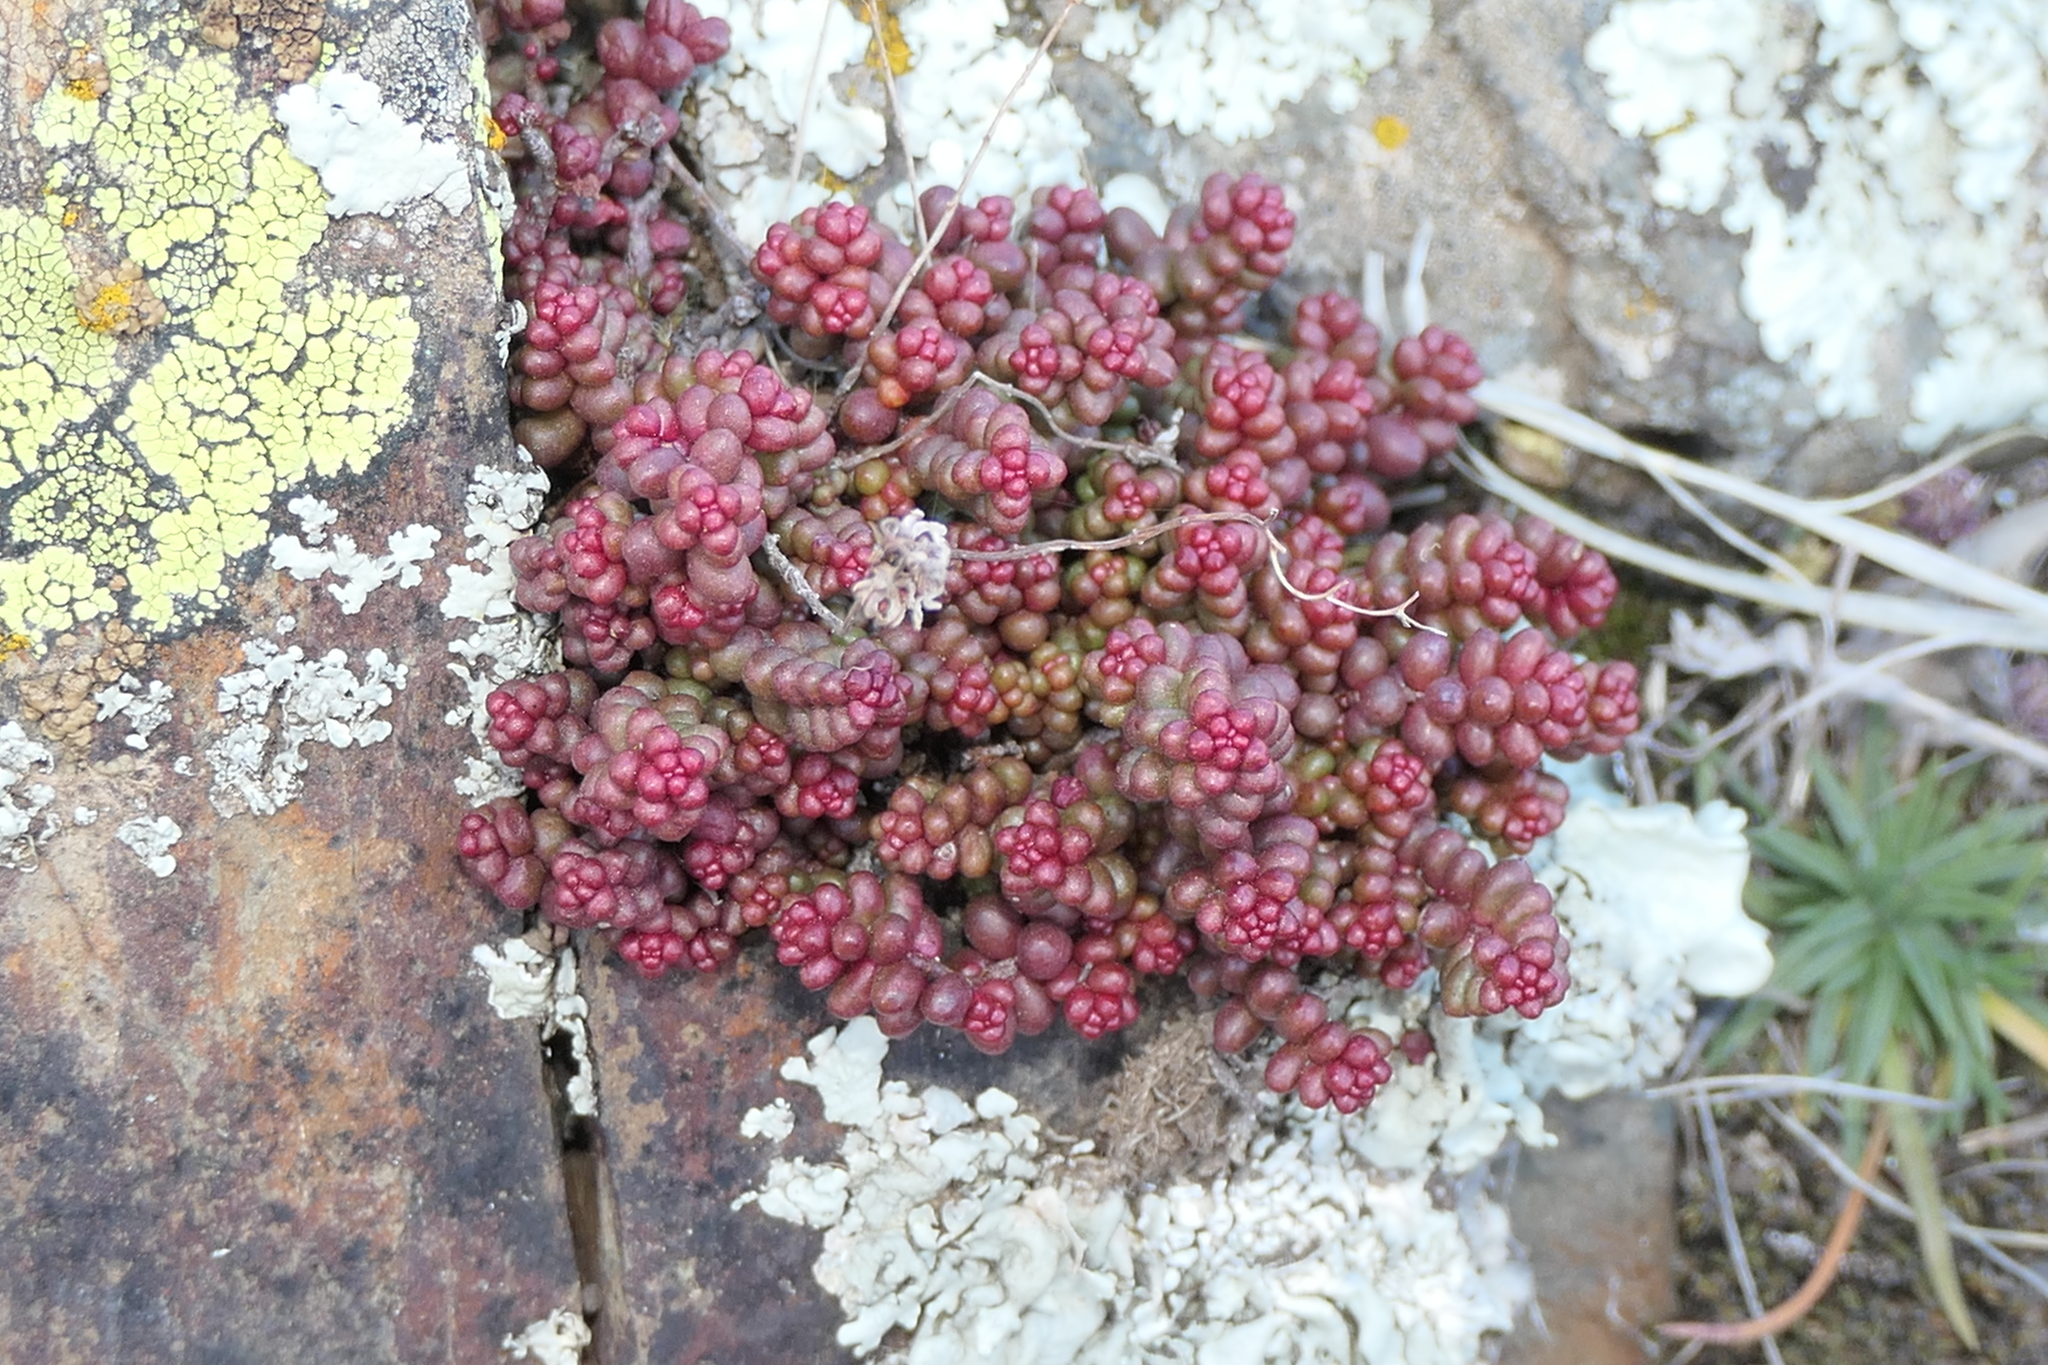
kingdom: Plantae
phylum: Tracheophyta
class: Magnoliopsida
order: Saxifragales
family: Crassulaceae
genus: Sedum
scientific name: Sedum brevifolium
